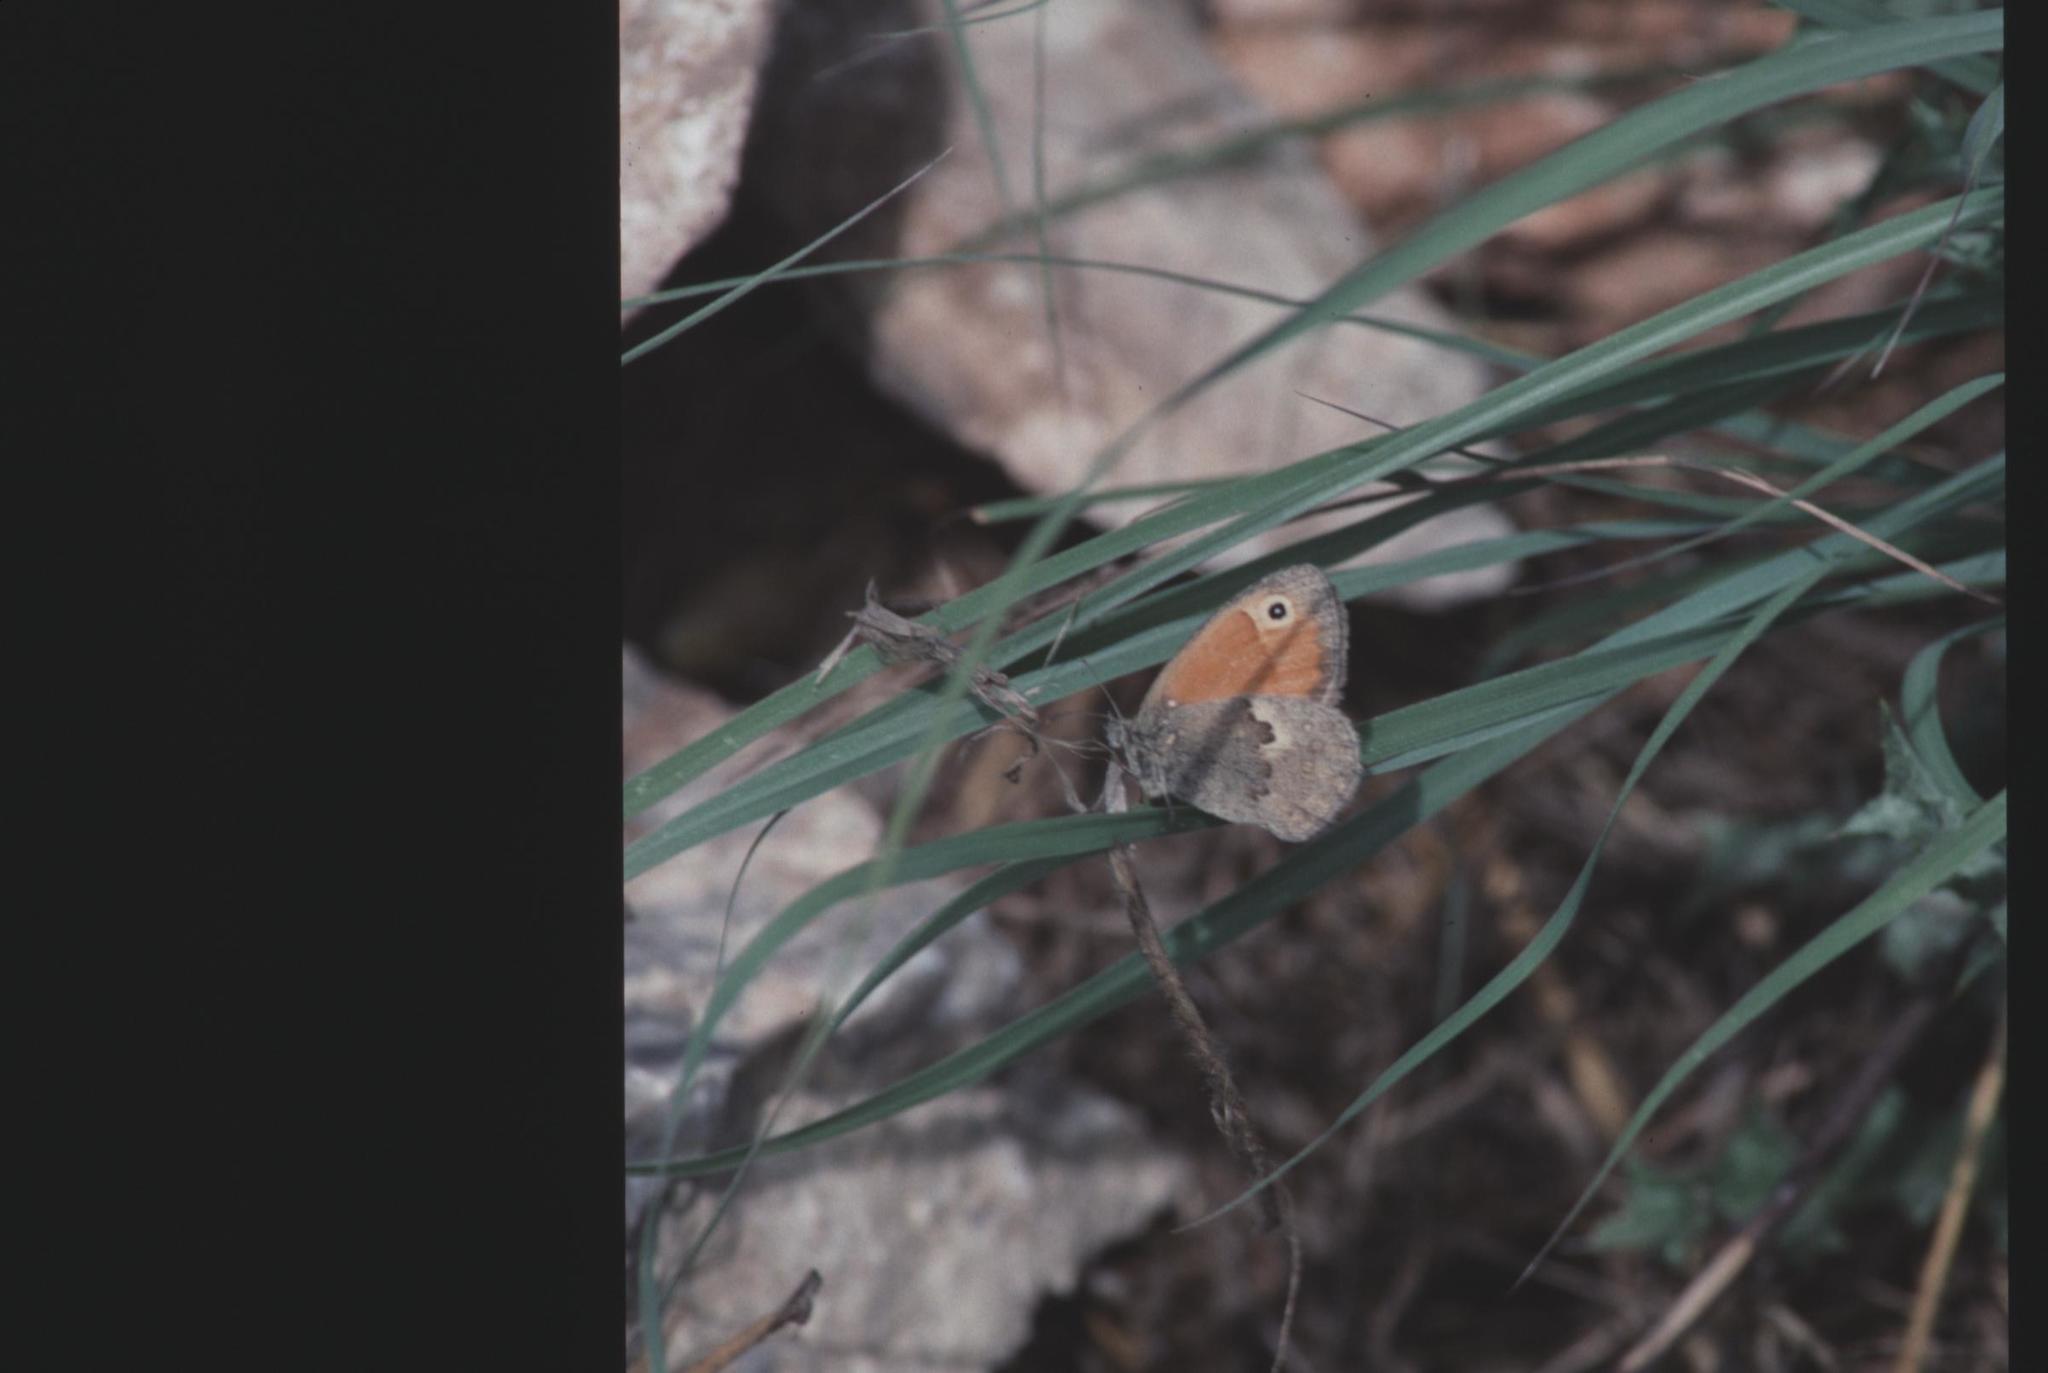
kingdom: Animalia
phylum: Arthropoda
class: Insecta
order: Lepidoptera
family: Nymphalidae
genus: Coenonympha
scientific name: Coenonympha pamphilus
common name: Small heath
